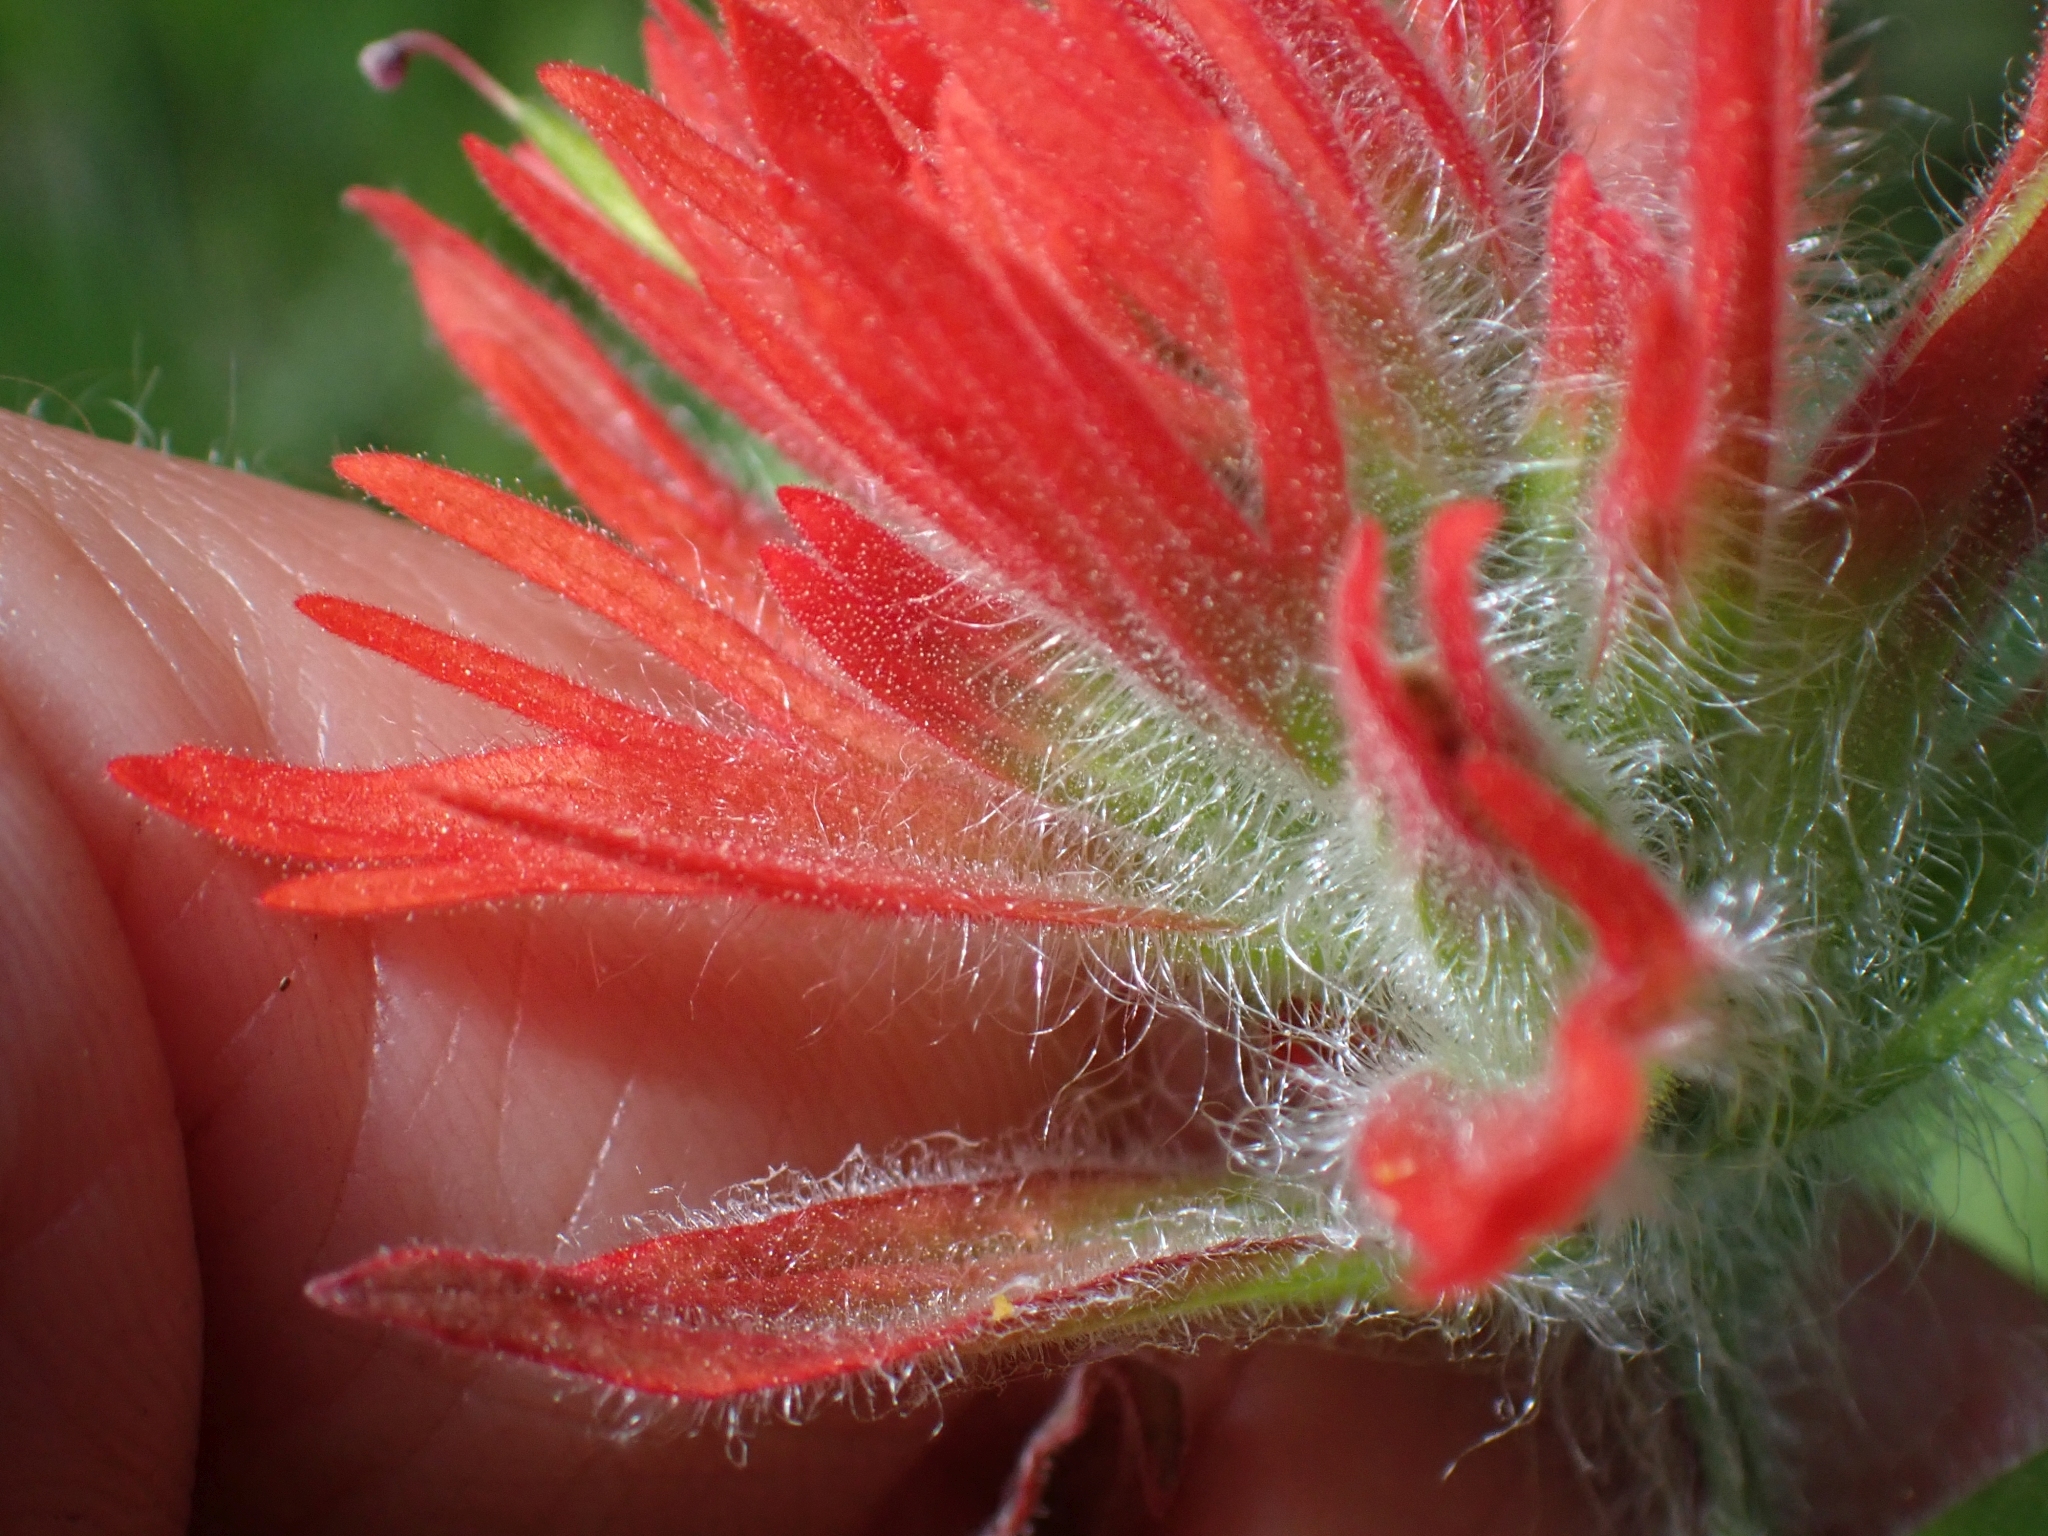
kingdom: Plantae
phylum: Tracheophyta
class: Magnoliopsida
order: Lamiales
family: Orobanchaceae
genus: Castilleja
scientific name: Castilleja miniata
